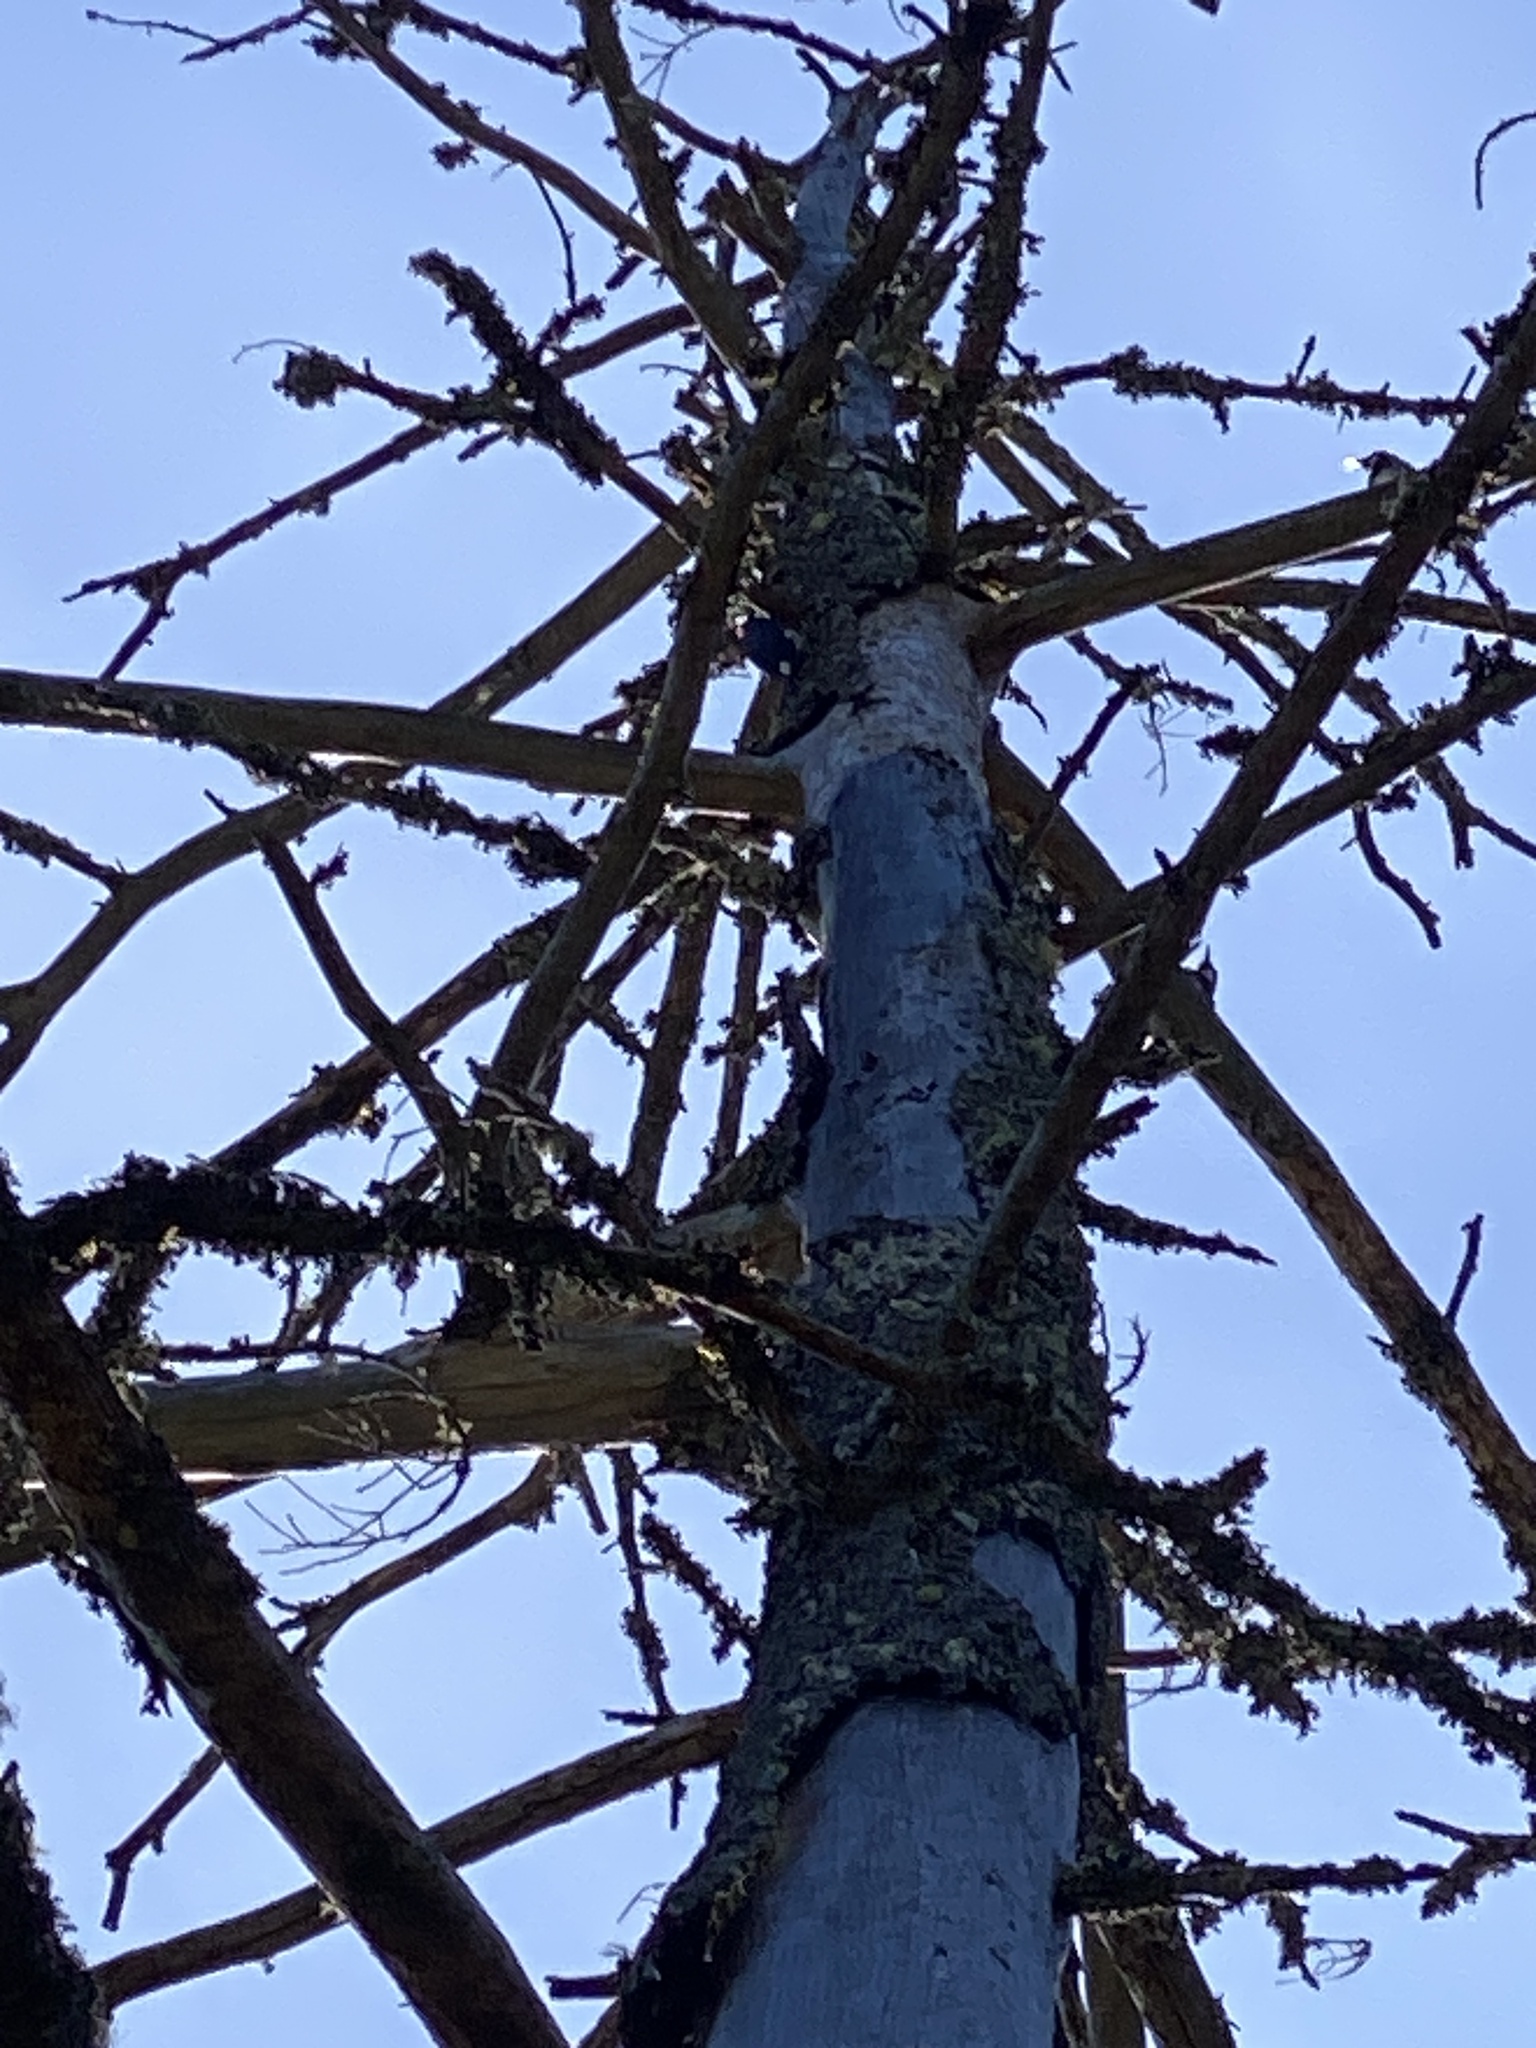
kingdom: Animalia
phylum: Chordata
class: Aves
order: Piciformes
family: Picidae
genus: Melanerpes
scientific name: Melanerpes formicivorus
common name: Acorn woodpecker
